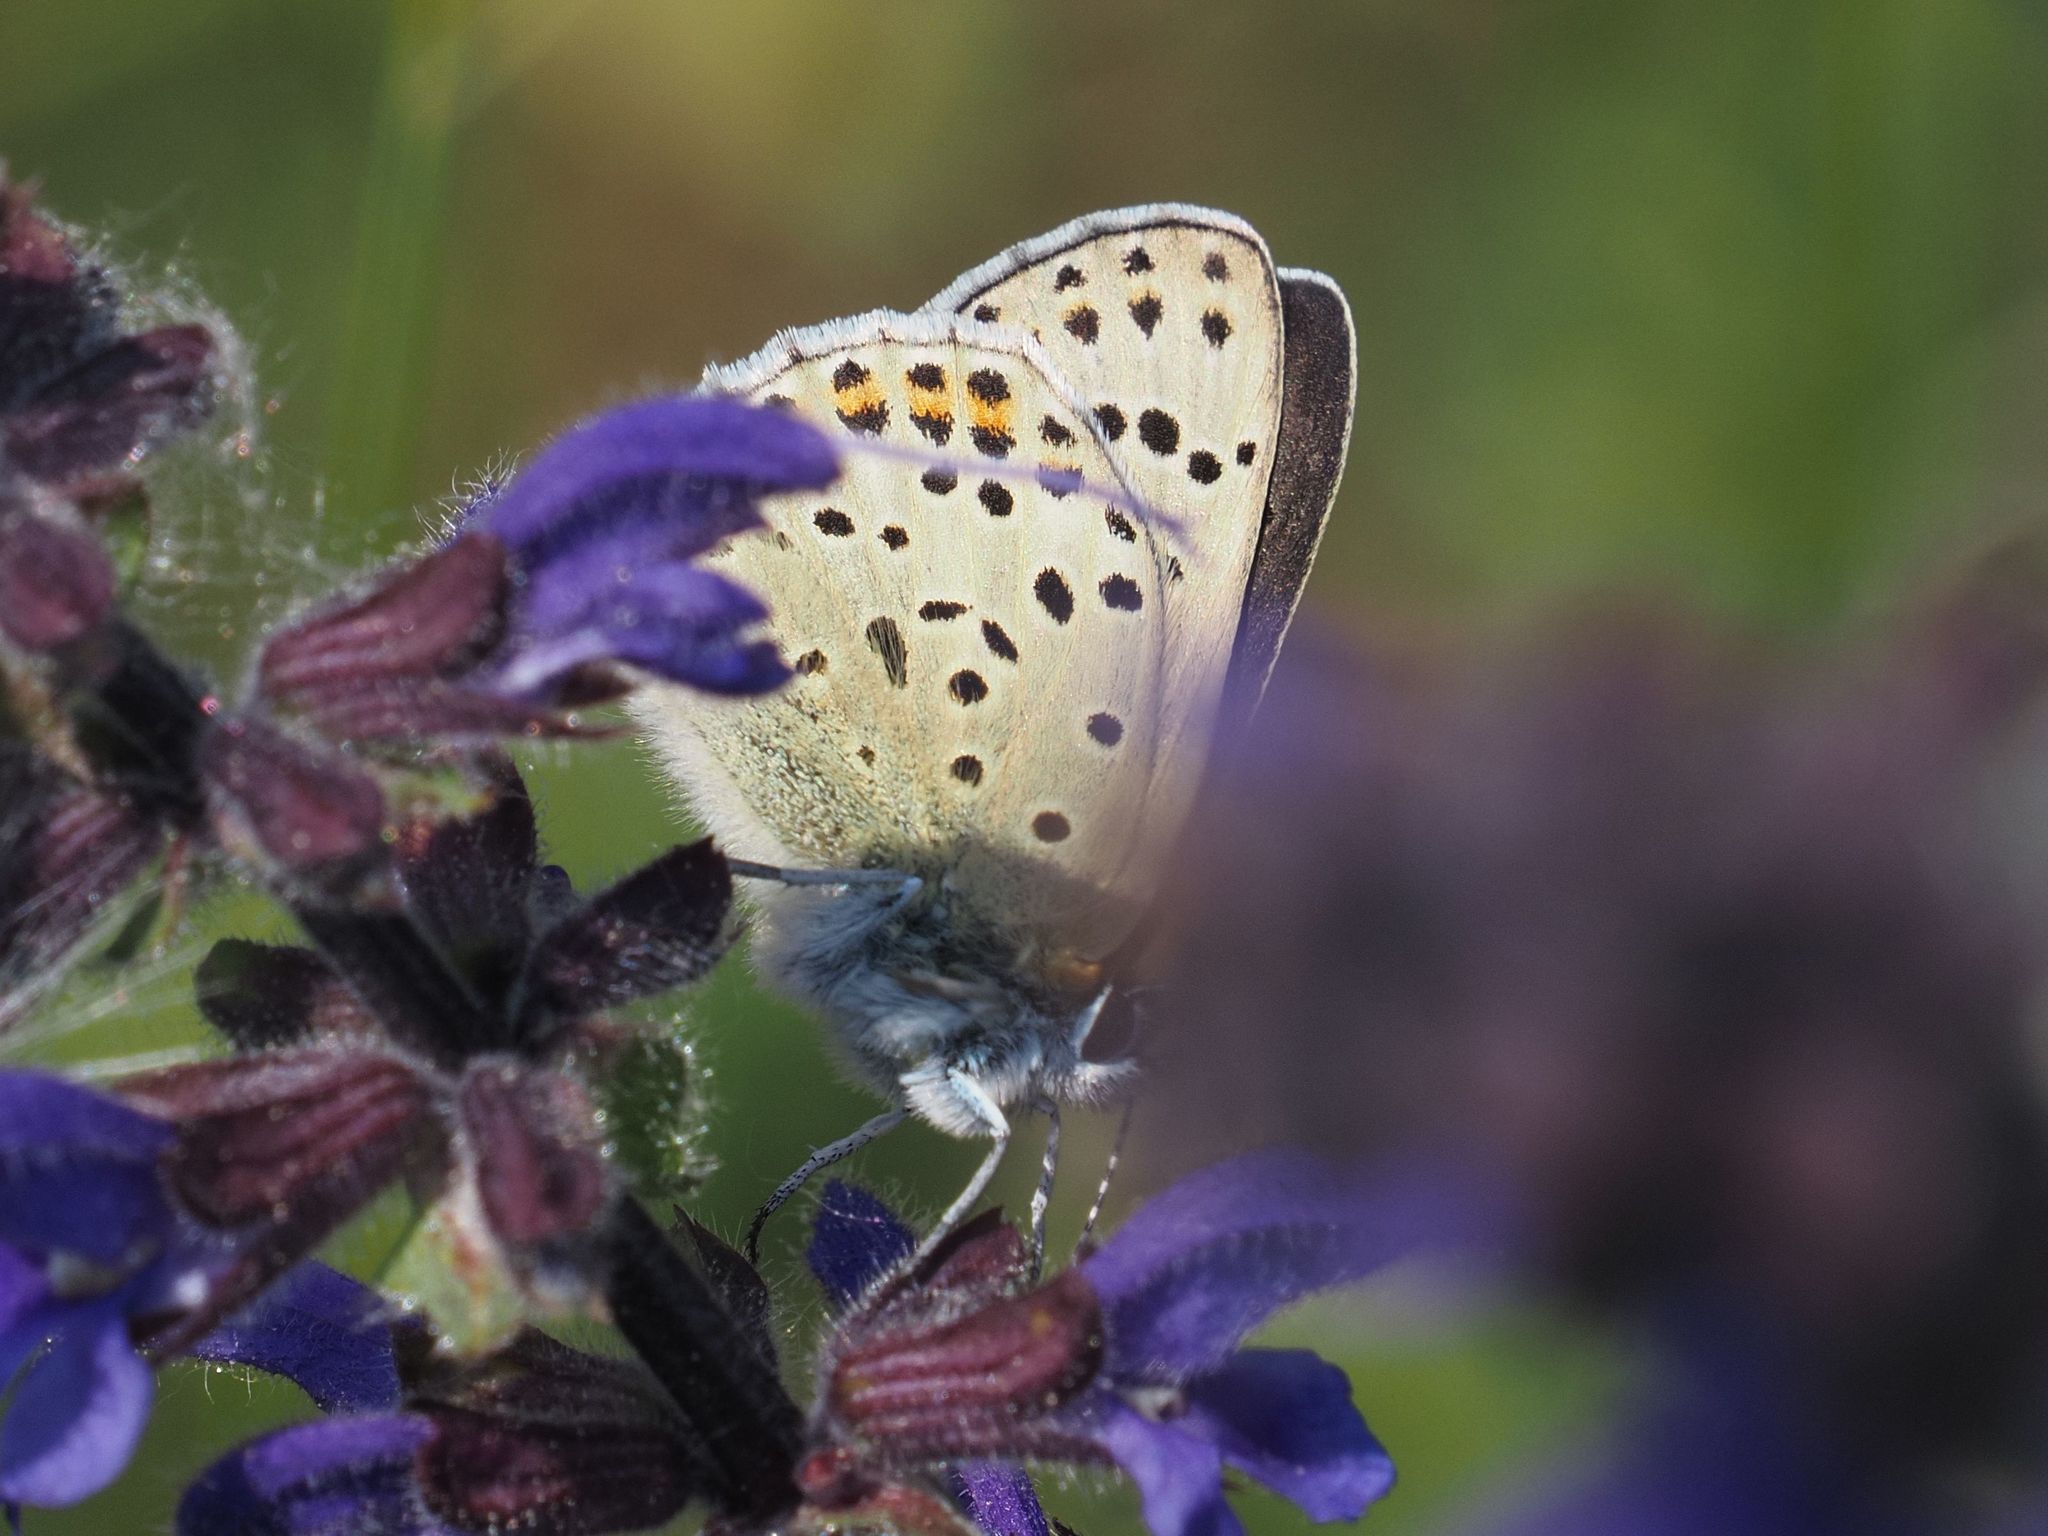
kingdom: Animalia
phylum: Arthropoda
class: Insecta
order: Lepidoptera
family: Lycaenidae
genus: Loweia
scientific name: Loweia tityrus
